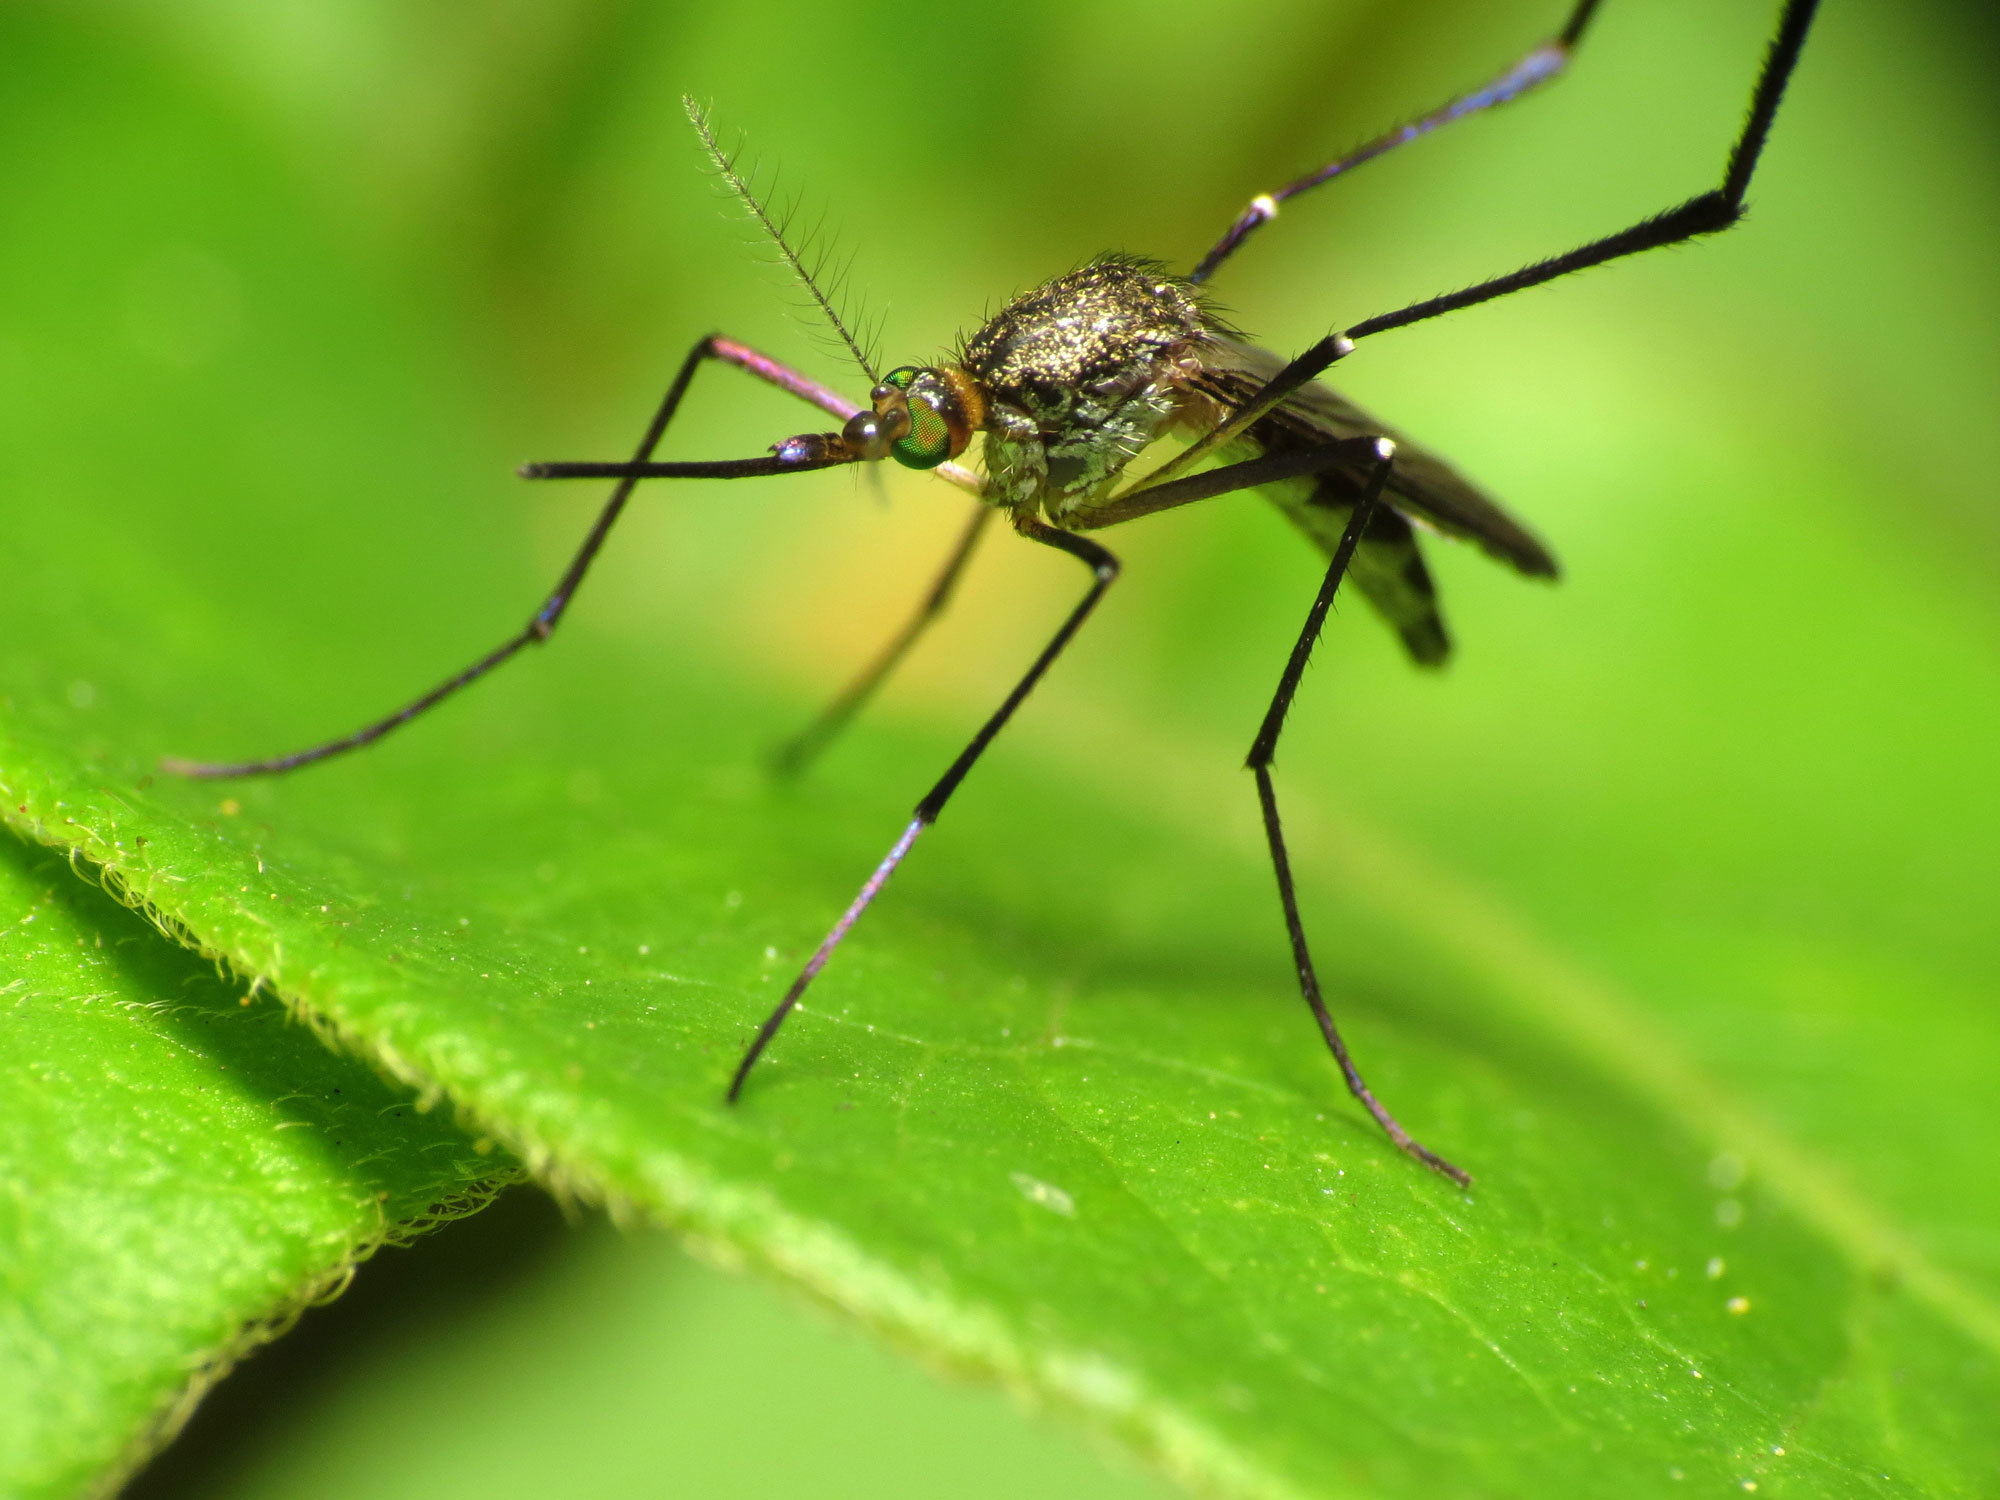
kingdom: Animalia
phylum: Arthropoda
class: Insecta
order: Diptera
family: Culicidae
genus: Psorophora
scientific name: Psorophora ferox
